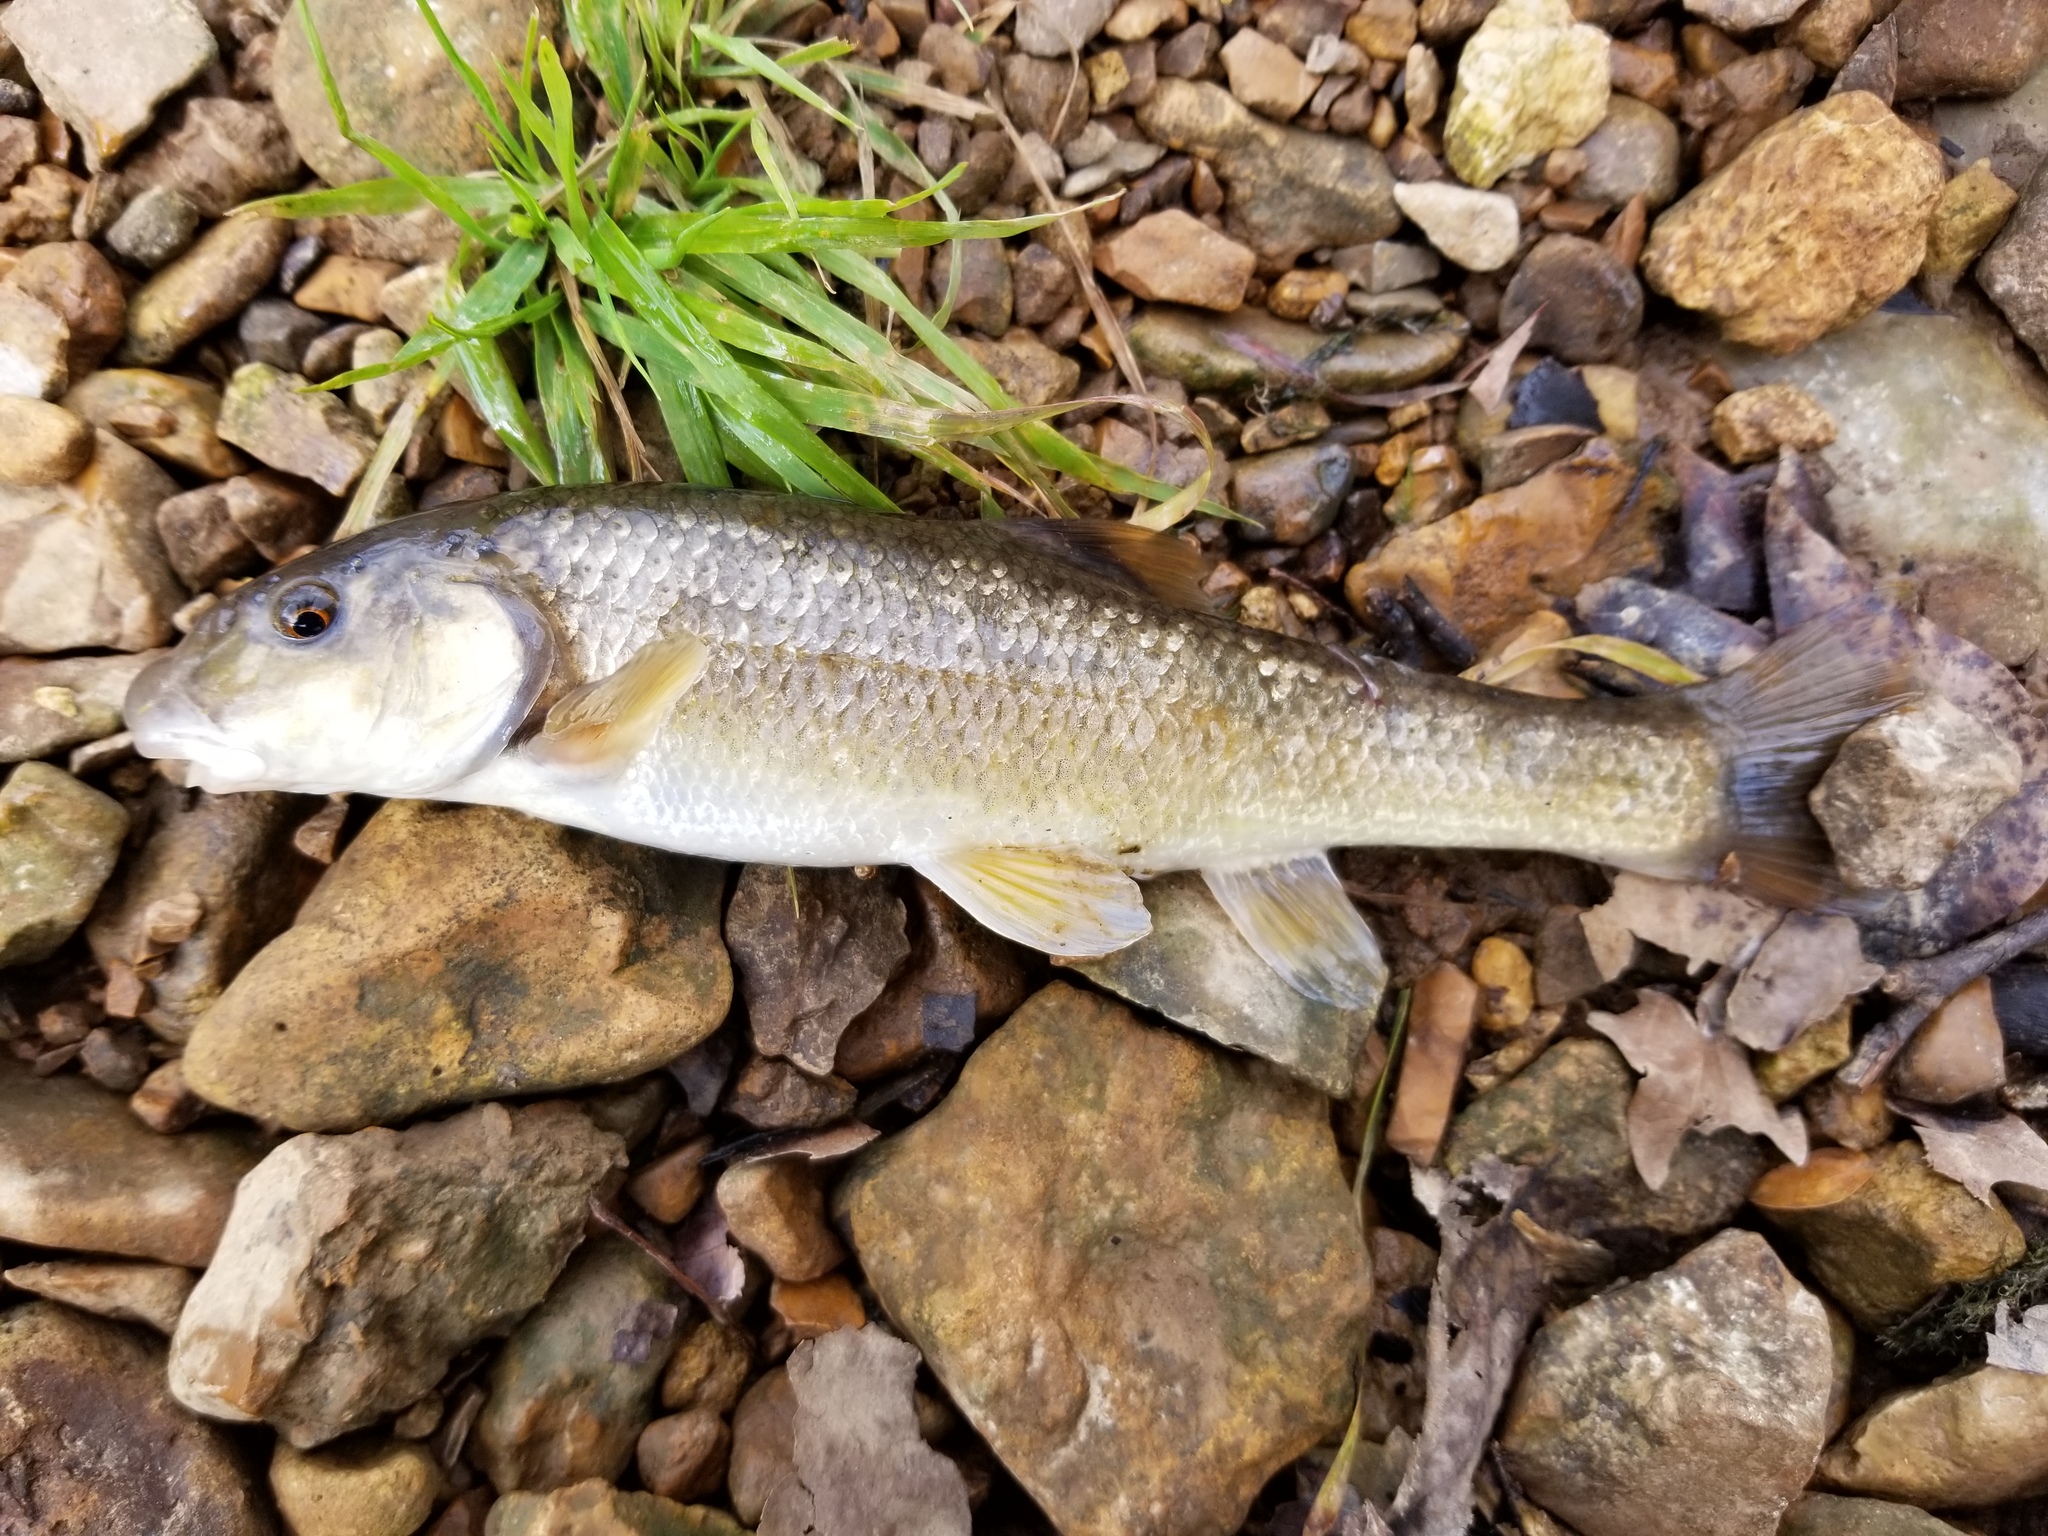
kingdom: Animalia
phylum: Chordata
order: Cypriniformes
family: Cyprinidae
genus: Campostoma
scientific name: Campostoma oligolepis
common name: Largescale stoneroller
